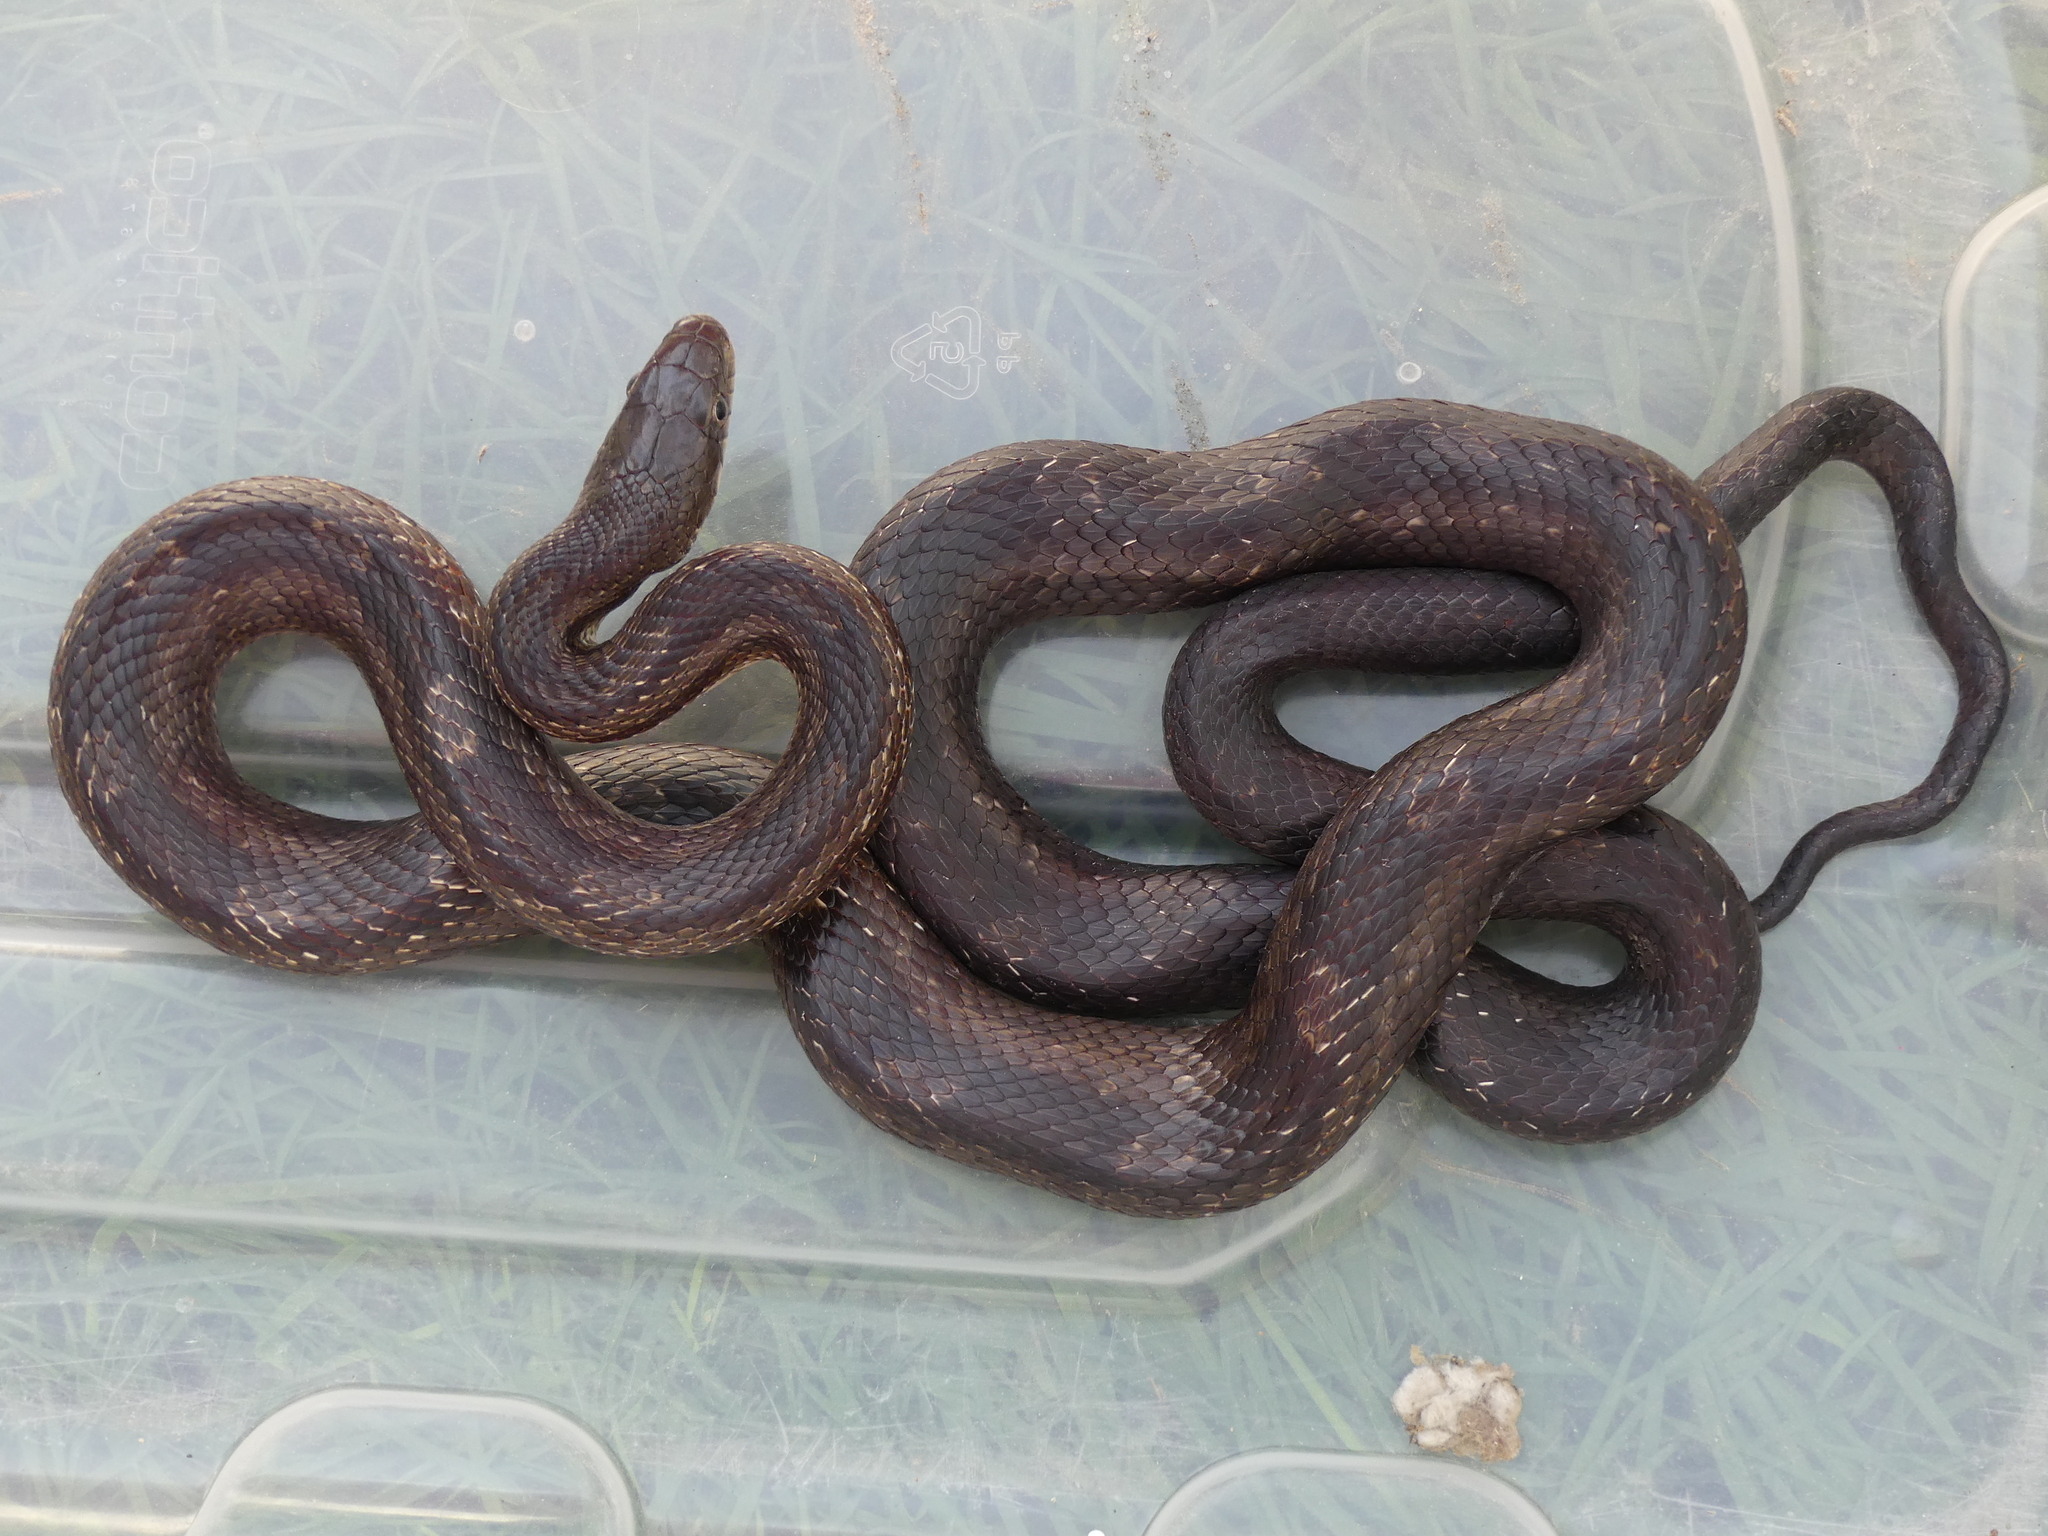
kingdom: Animalia
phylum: Chordata
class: Squamata
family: Colubridae
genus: Pantherophis
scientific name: Pantherophis alleghaniensis
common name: Eastern rat snake
